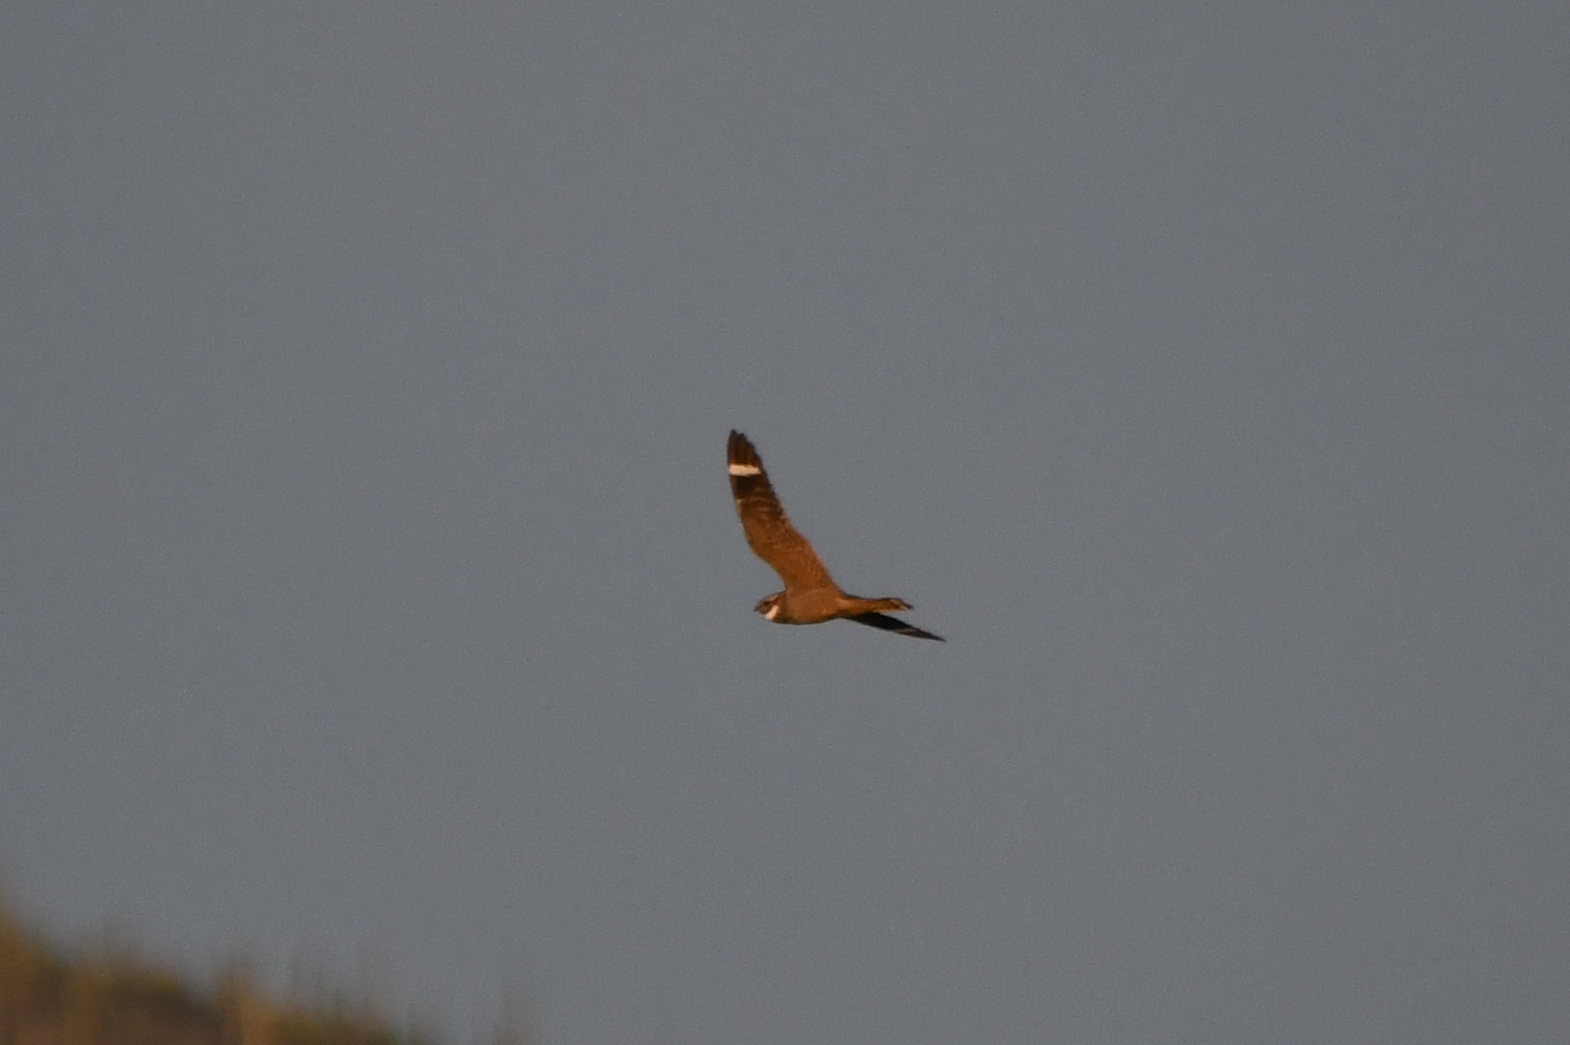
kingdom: Animalia
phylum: Chordata
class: Aves
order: Caprimulgiformes
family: Caprimulgidae
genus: Chordeiles
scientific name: Chordeiles acutipennis
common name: Lesser nighthawk
